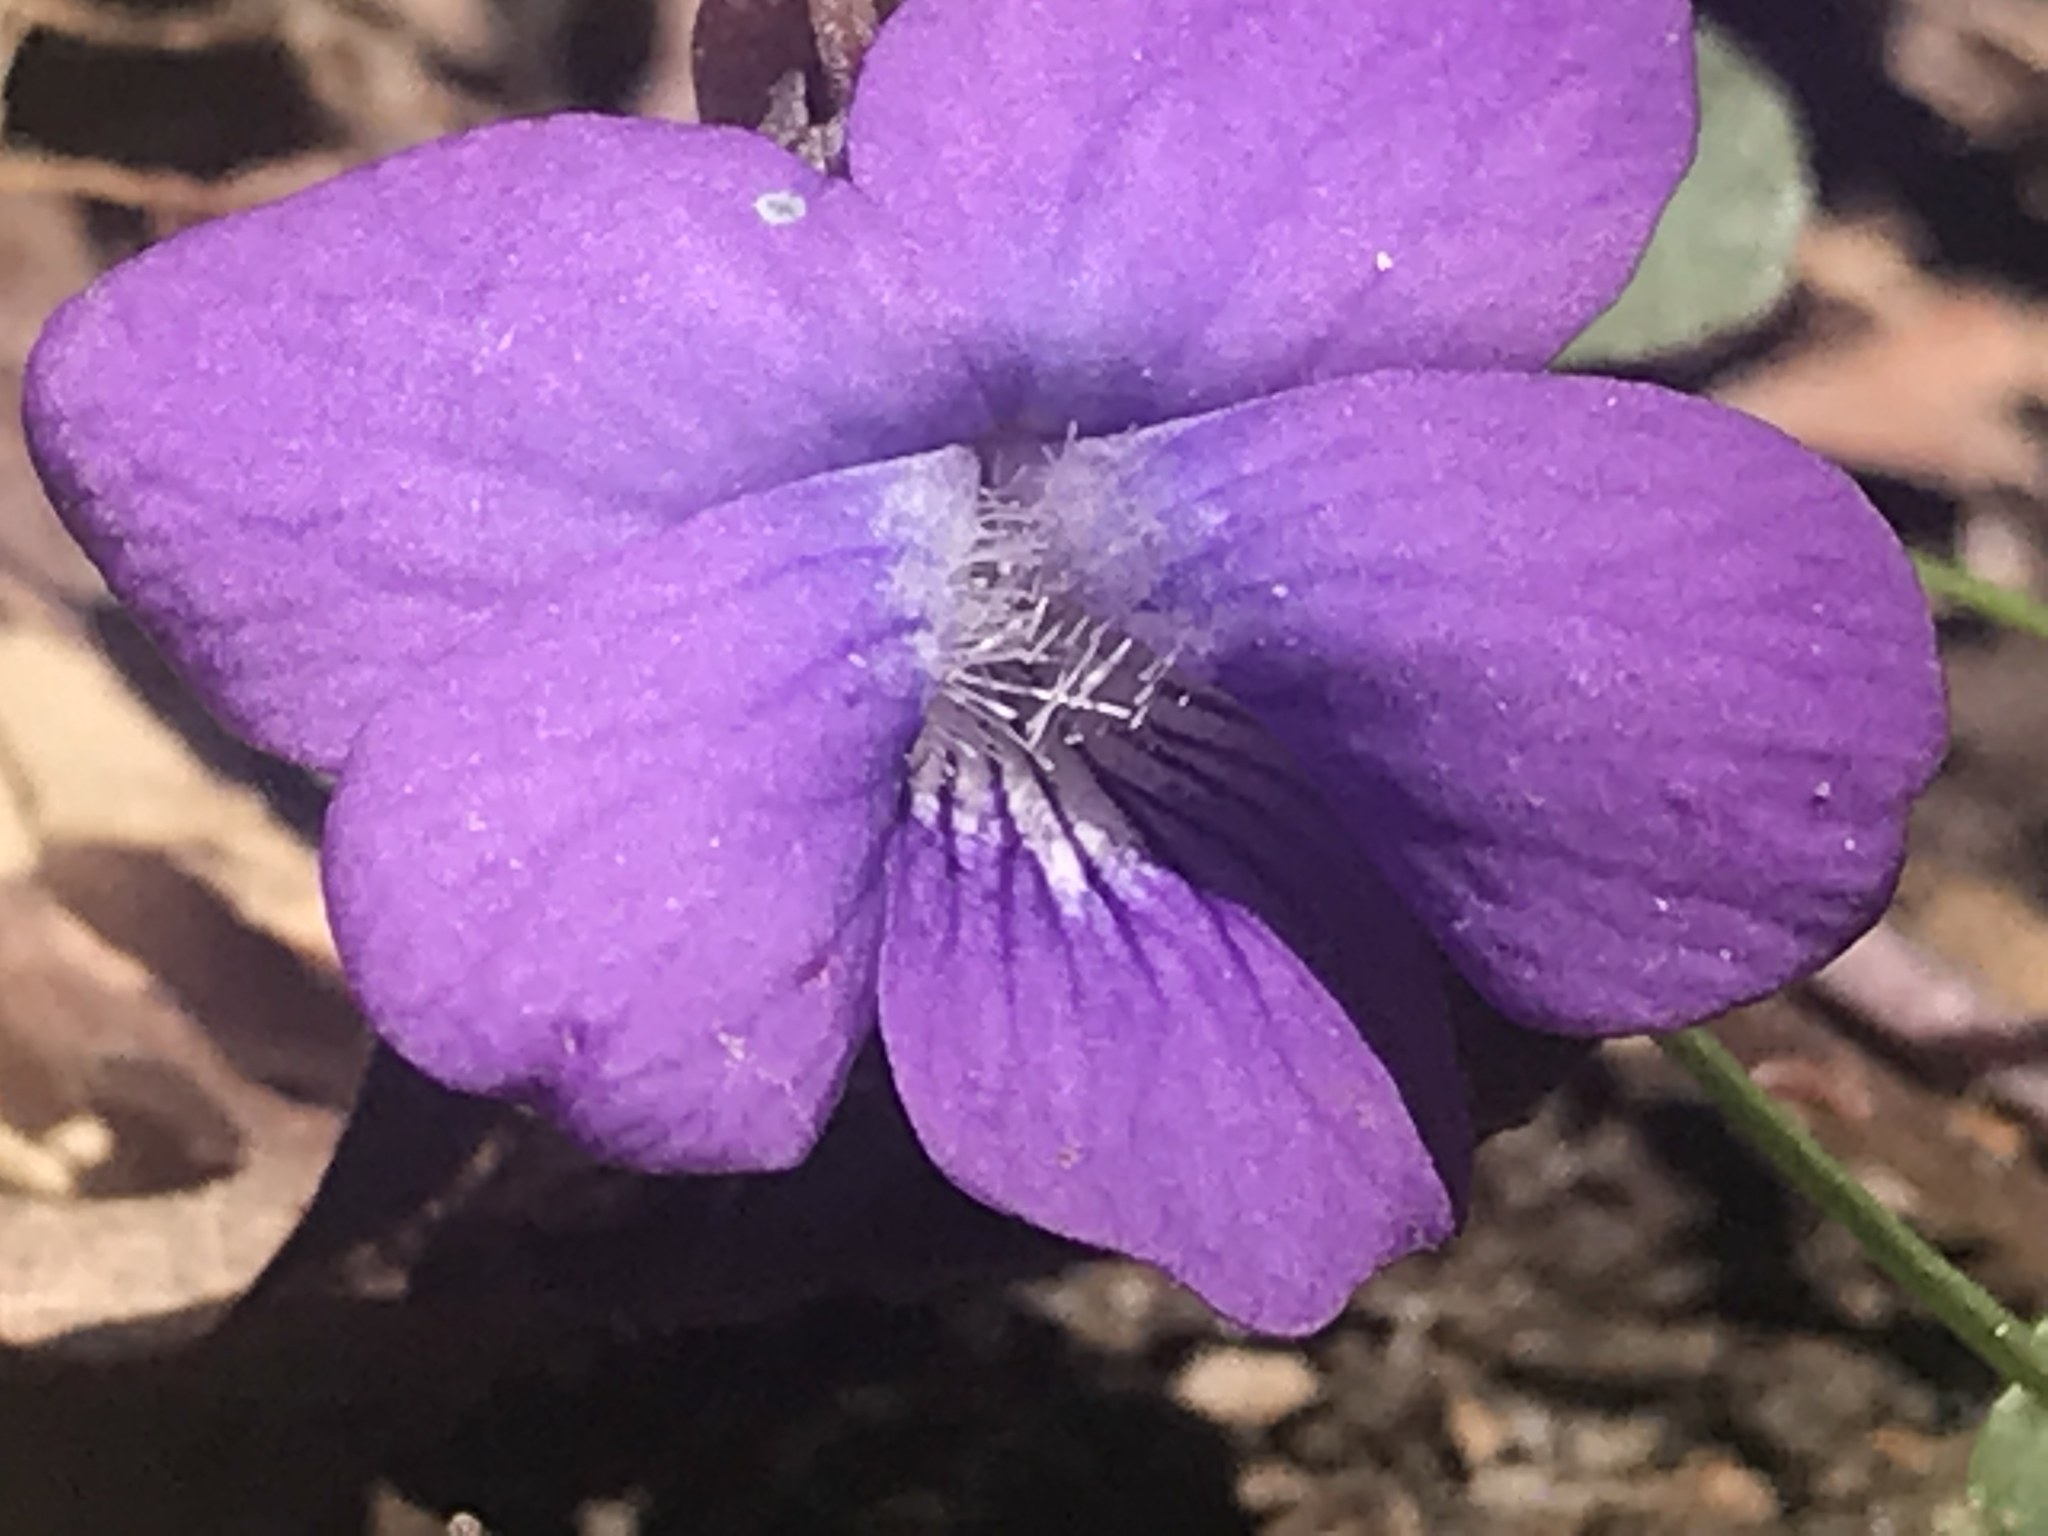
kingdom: Plantae
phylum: Tracheophyta
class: Magnoliopsida
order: Malpighiales
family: Violaceae
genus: Viola
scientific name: Viola hirsutula
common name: Southern wood violet
